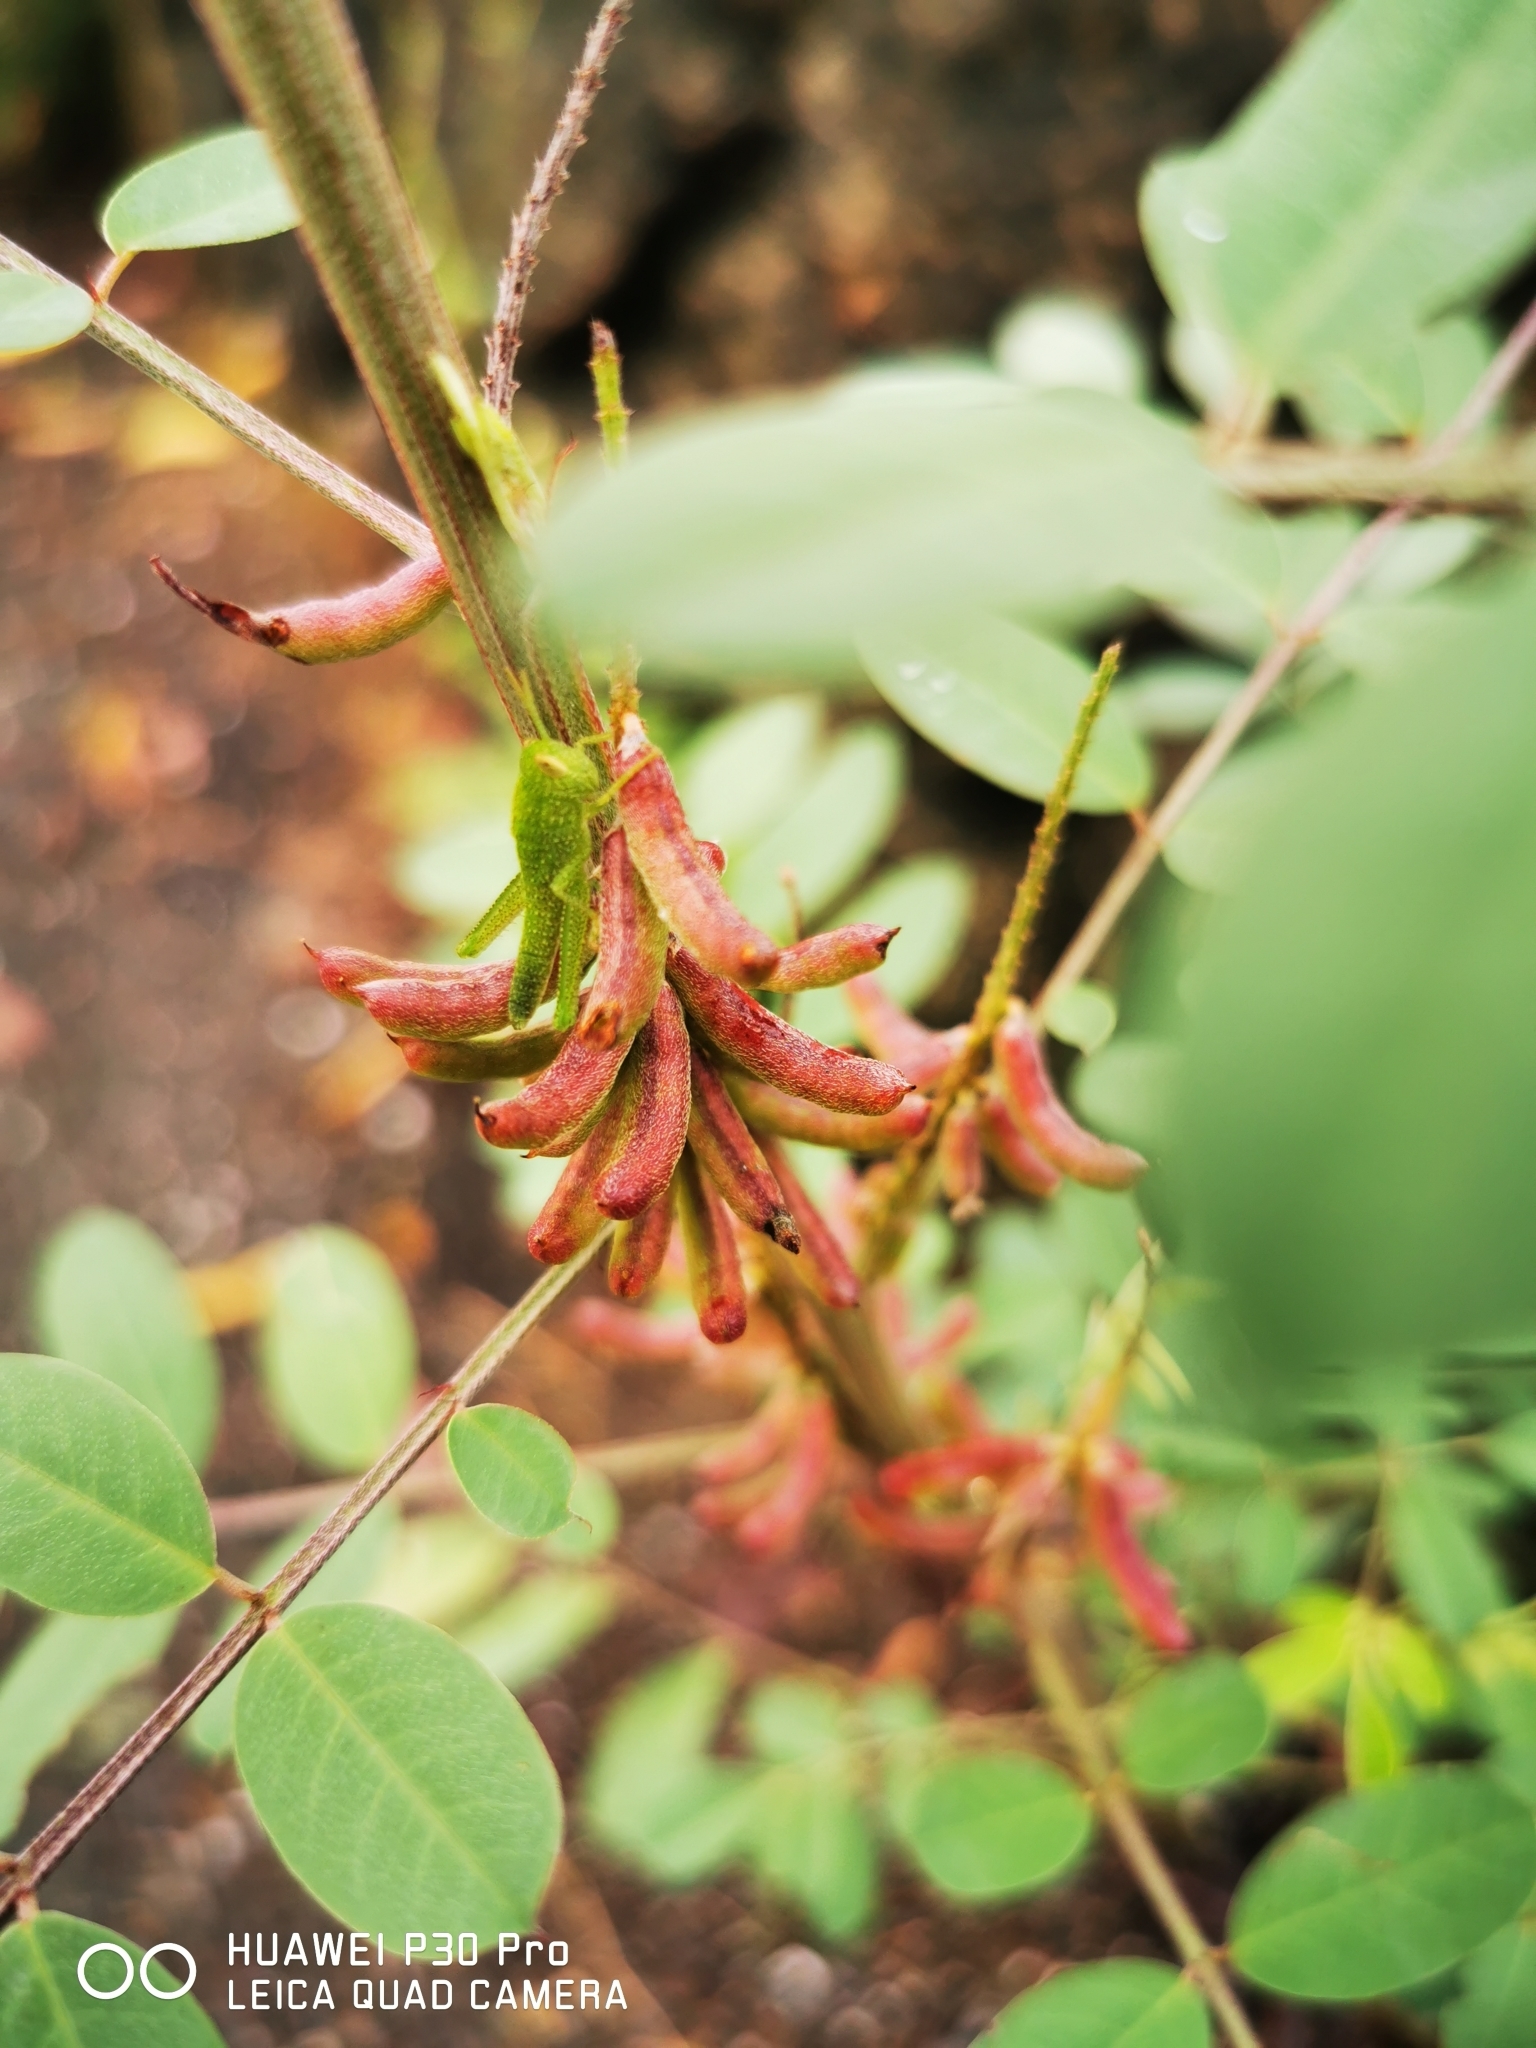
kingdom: Plantae
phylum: Tracheophyta
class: Magnoliopsida
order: Fabales
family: Fabaceae
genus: Indigofera
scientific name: Indigofera suffruticosa
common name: Anil de pasto
